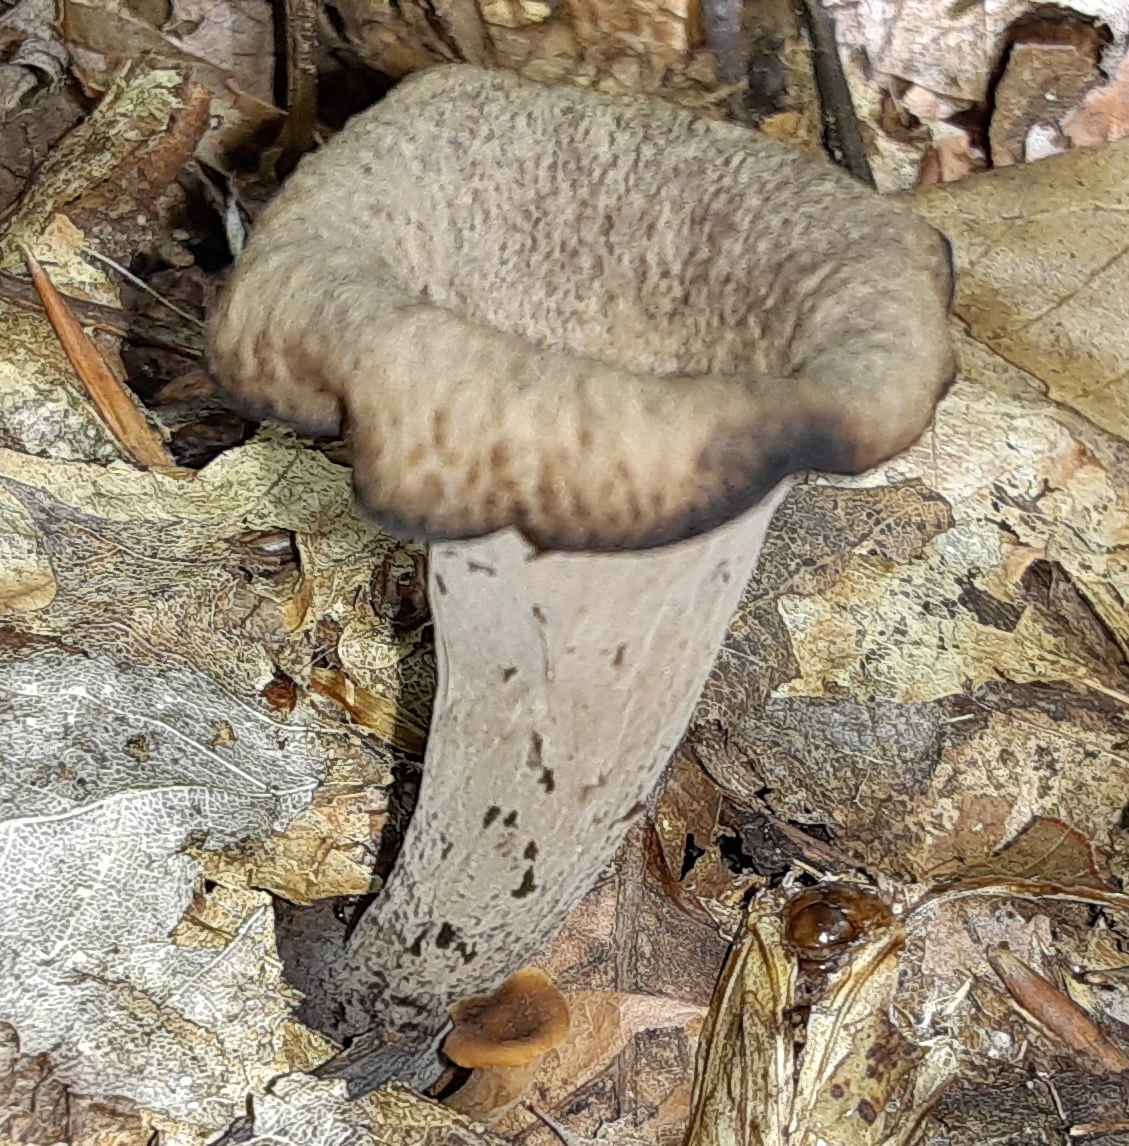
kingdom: Fungi
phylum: Basidiomycota
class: Agaricomycetes
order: Cantharellales
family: Hydnaceae
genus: Craterellus
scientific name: Craterellus cornucopioides
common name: Horn of plenty
